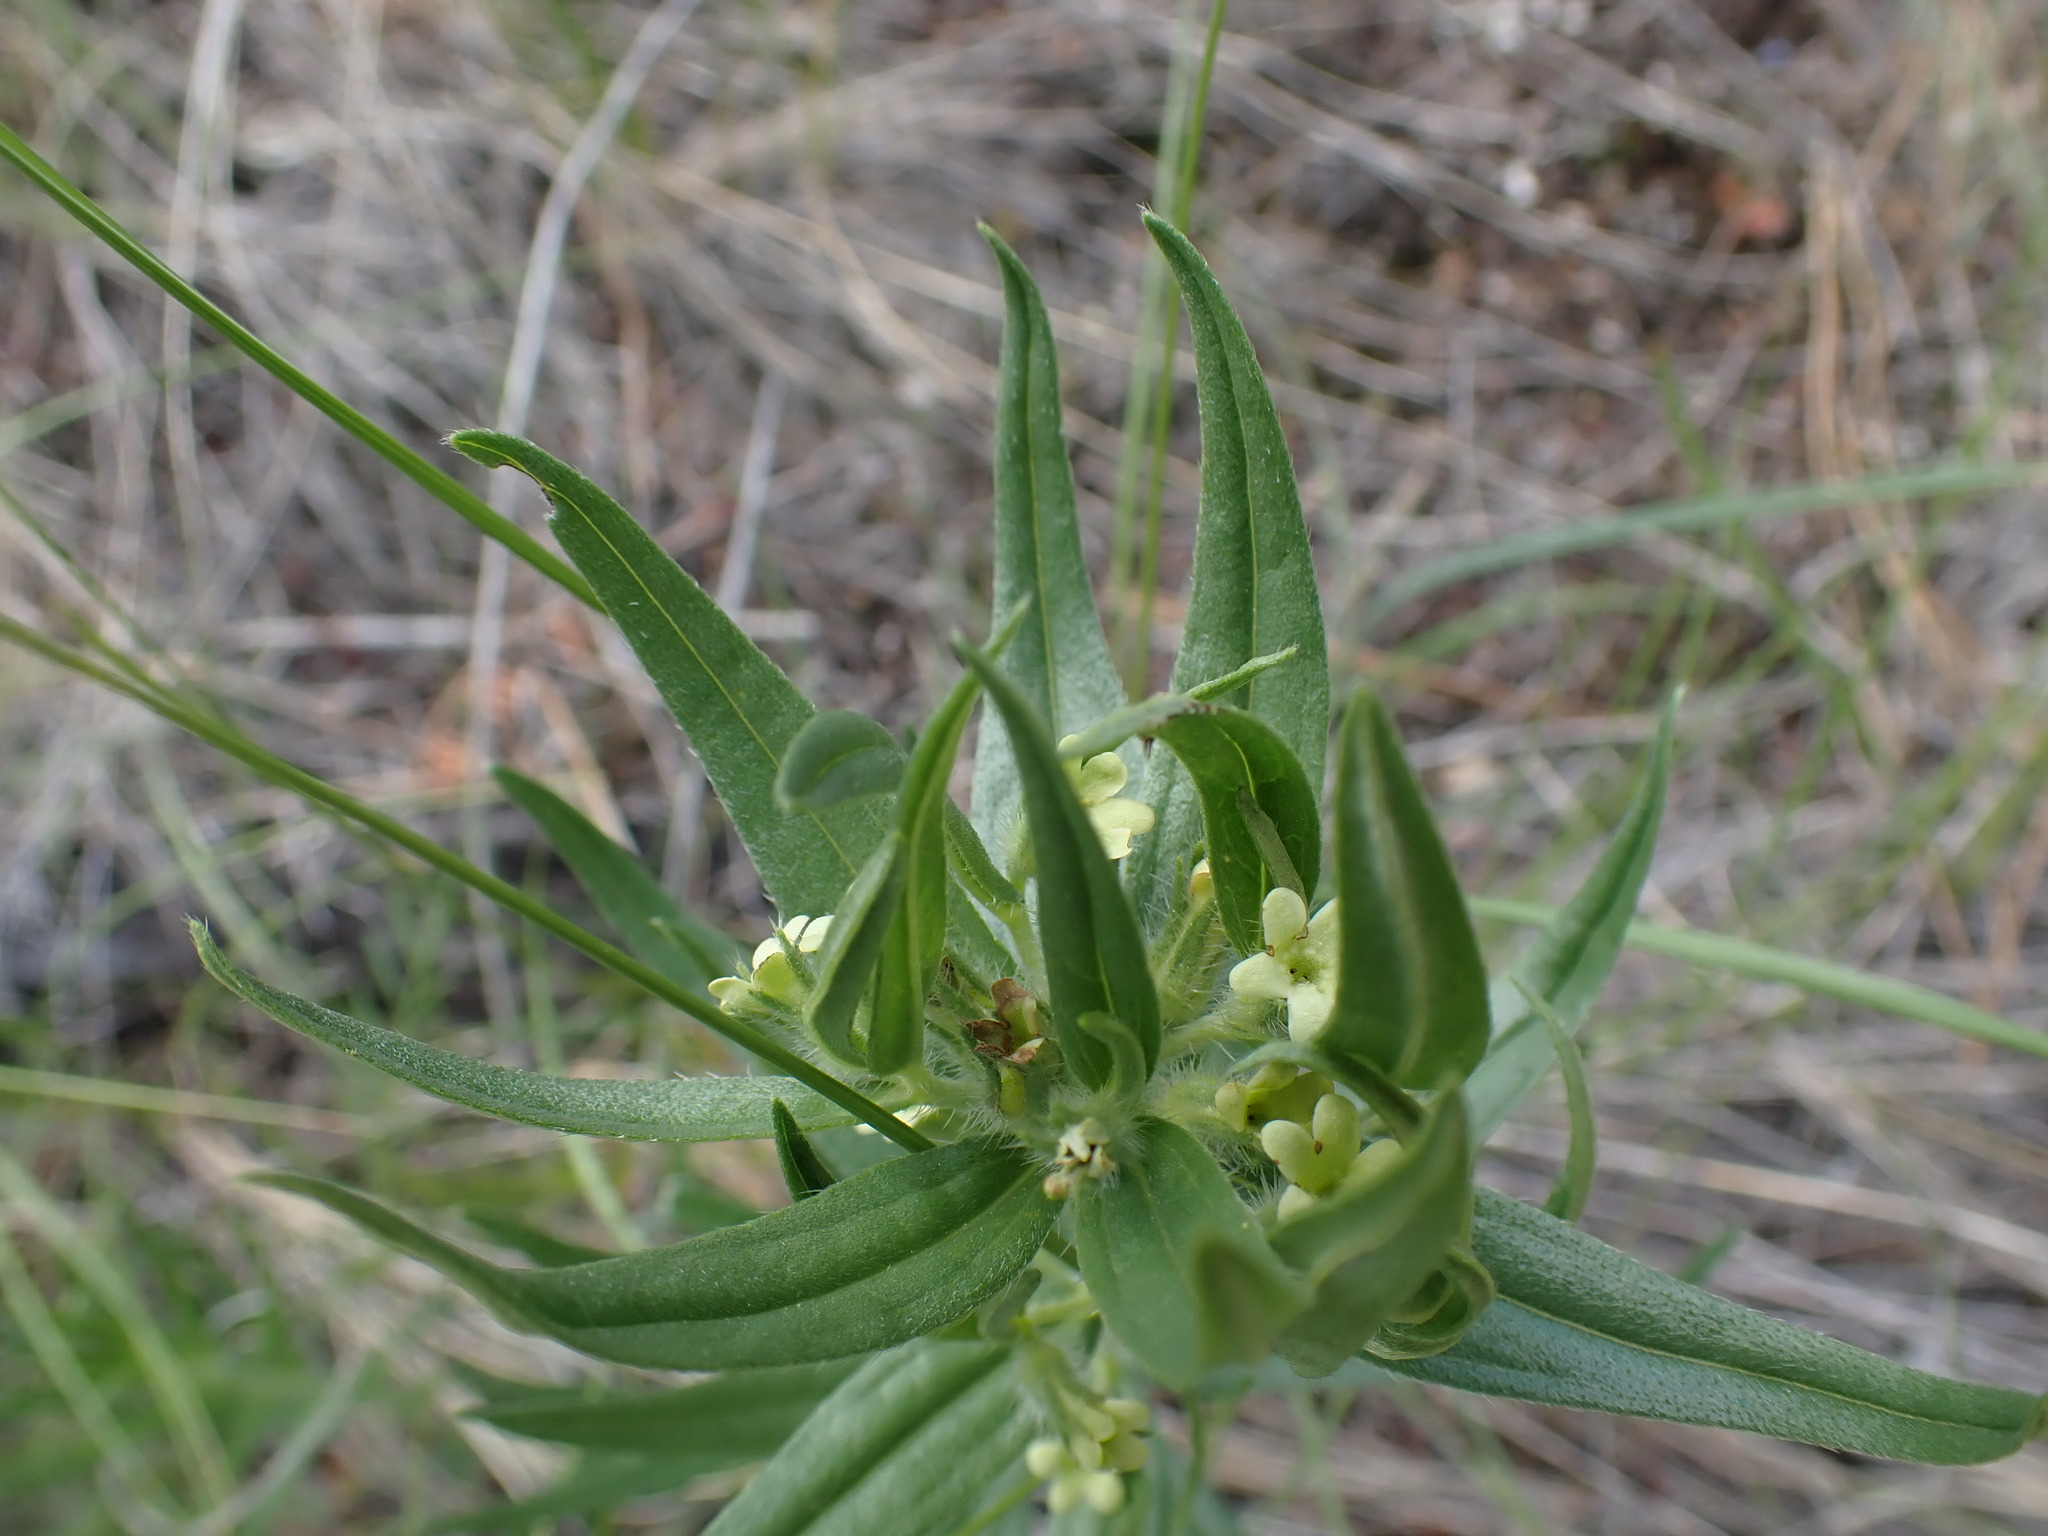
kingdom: Plantae
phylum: Tracheophyta
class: Magnoliopsida
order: Boraginales
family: Boraginaceae
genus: Lithospermum
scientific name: Lithospermum ruderale
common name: Western gromwell
